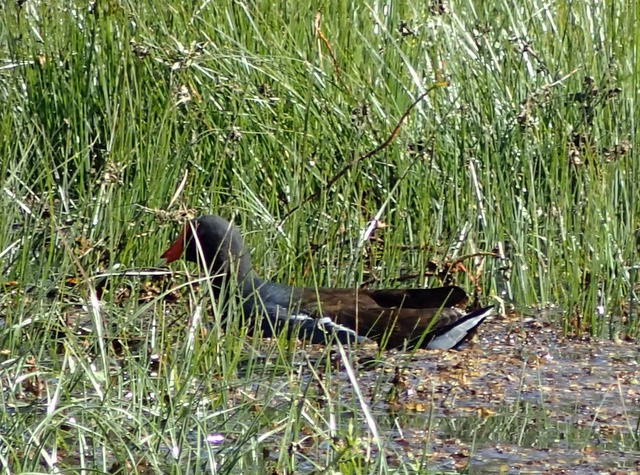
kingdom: Animalia
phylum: Chordata
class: Aves
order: Gruiformes
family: Rallidae
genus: Gallinula
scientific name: Gallinula chloropus
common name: Common moorhen
